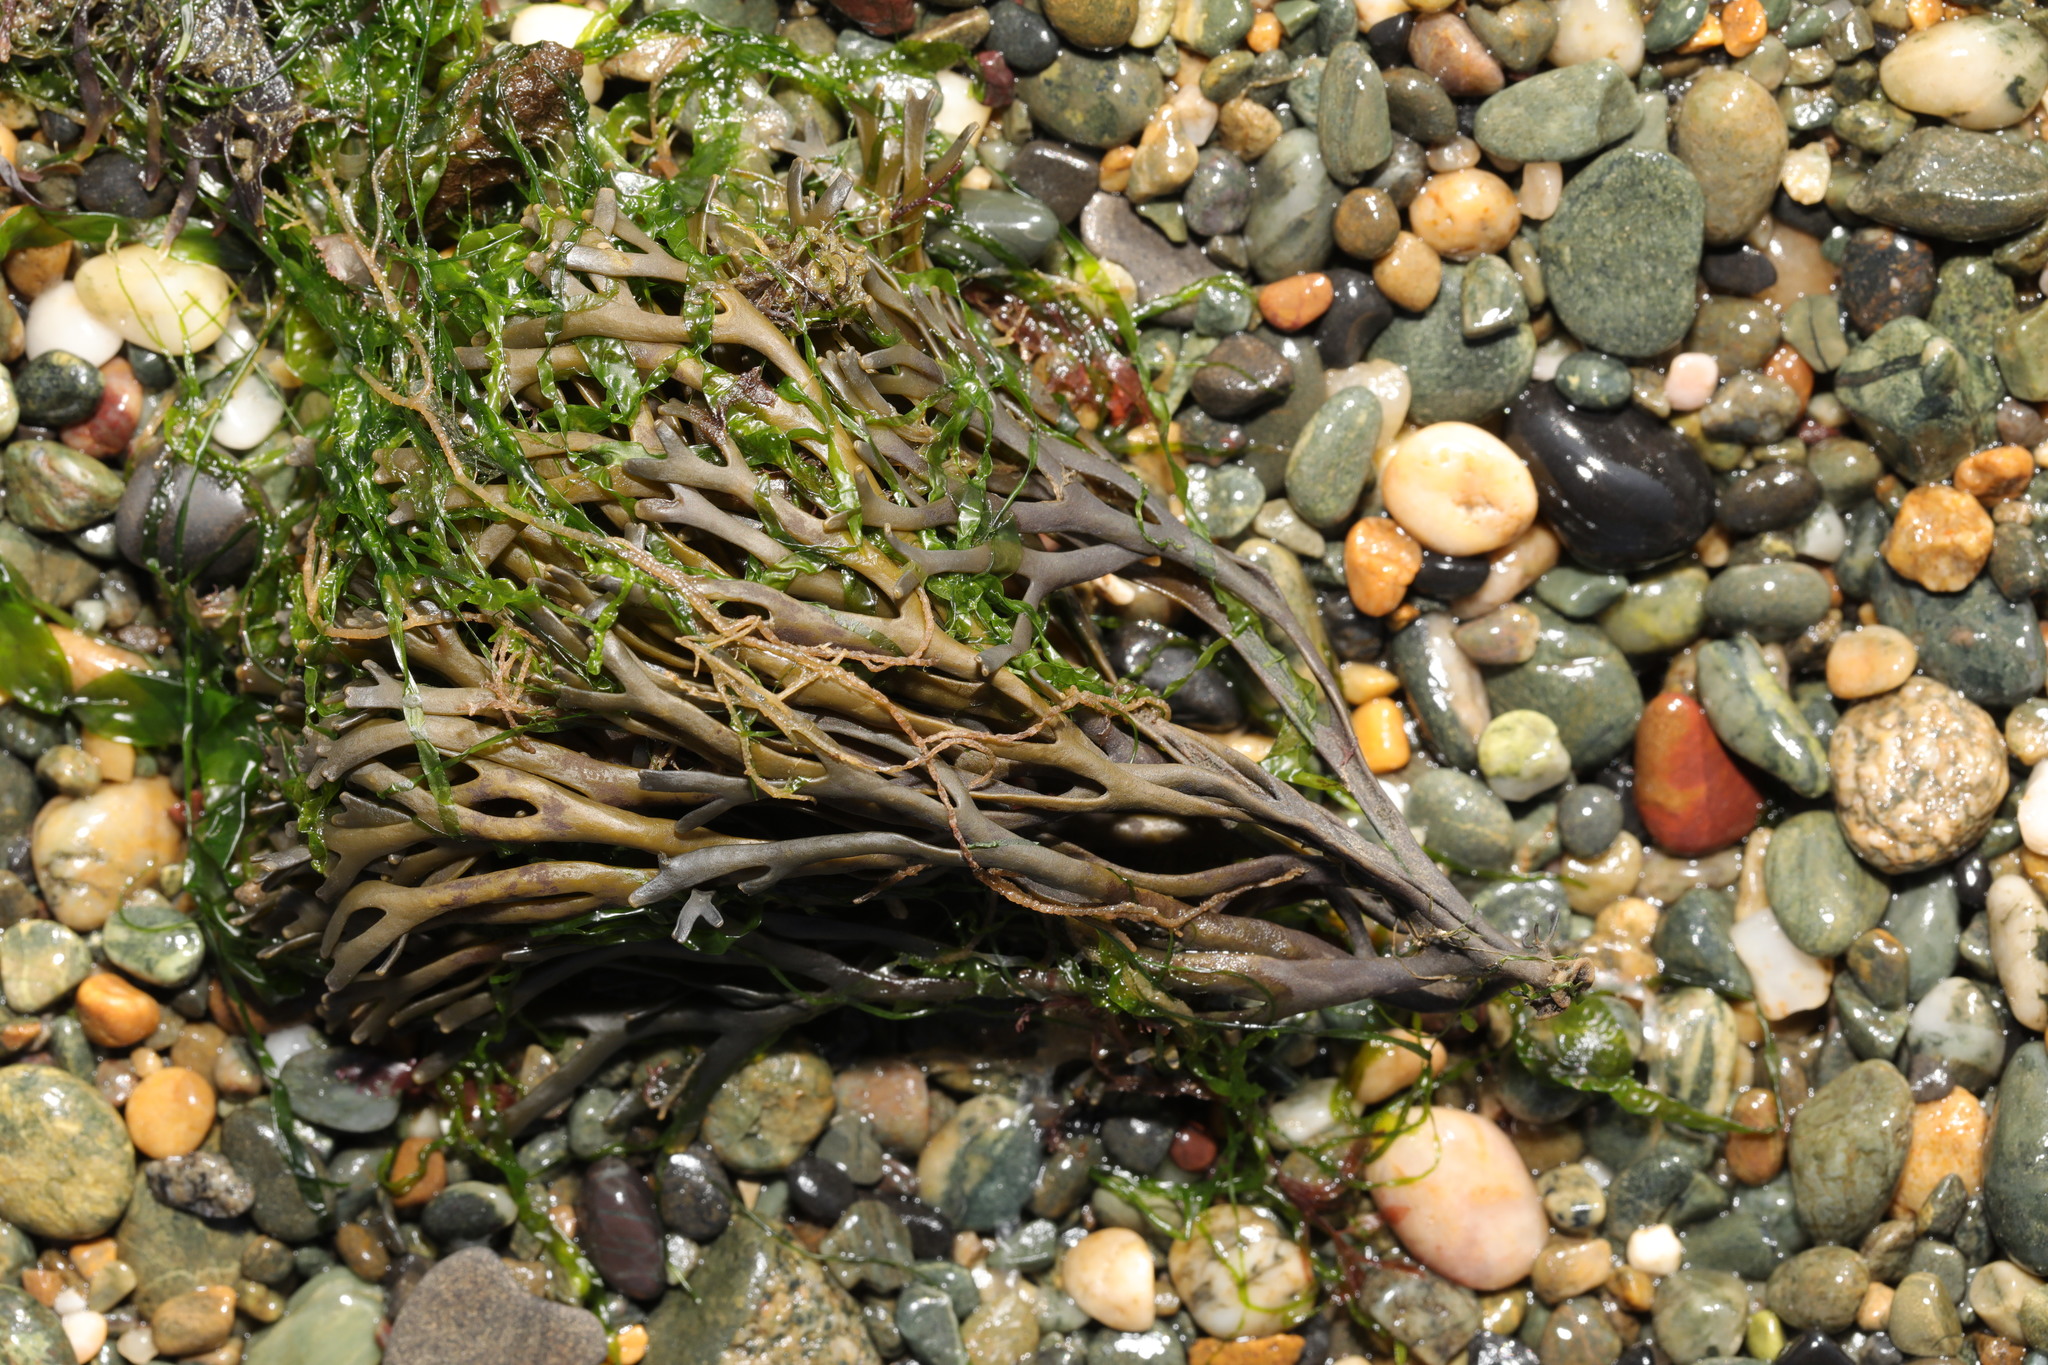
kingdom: Chromista
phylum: Ochrophyta
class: Phaeophyceae
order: Fucales
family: Fucaceae
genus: Pelvetia
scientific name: Pelvetia canaliculata
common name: Channelled wrack
